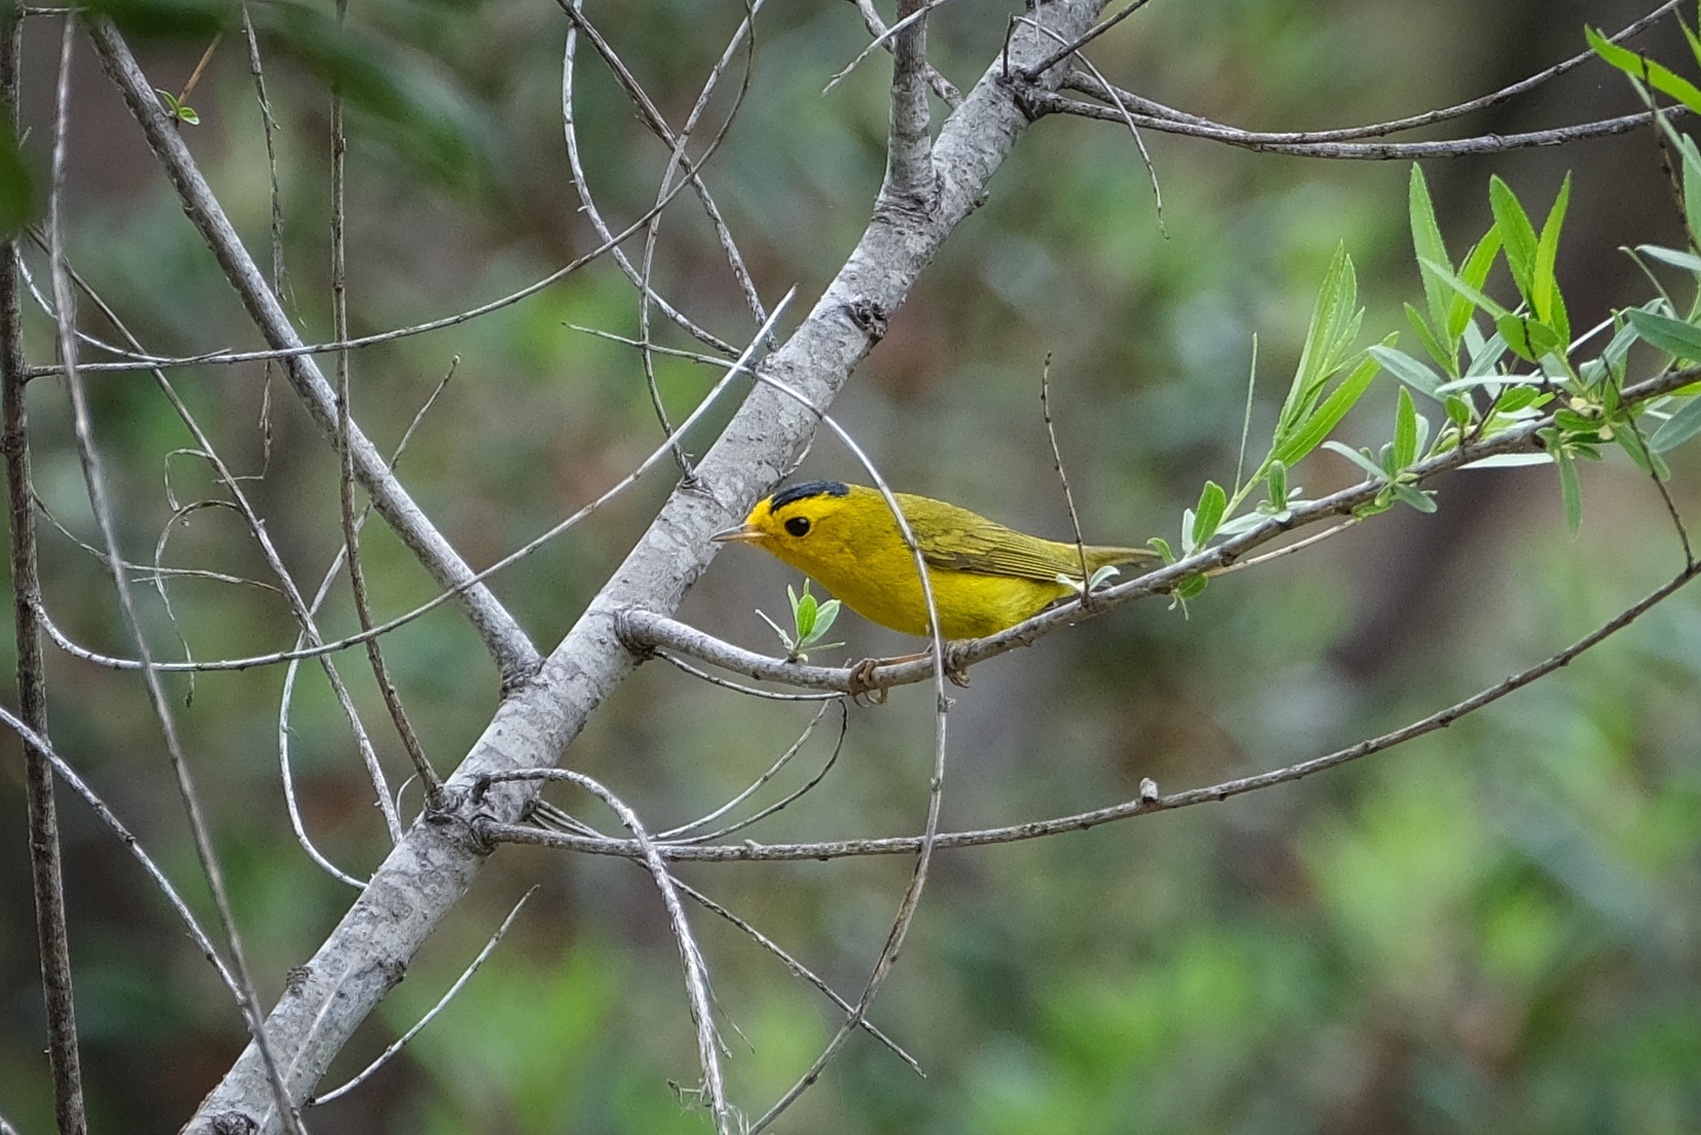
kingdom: Animalia
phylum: Chordata
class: Aves
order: Passeriformes
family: Parulidae
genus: Cardellina
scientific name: Cardellina pusilla
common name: Wilson's warbler
